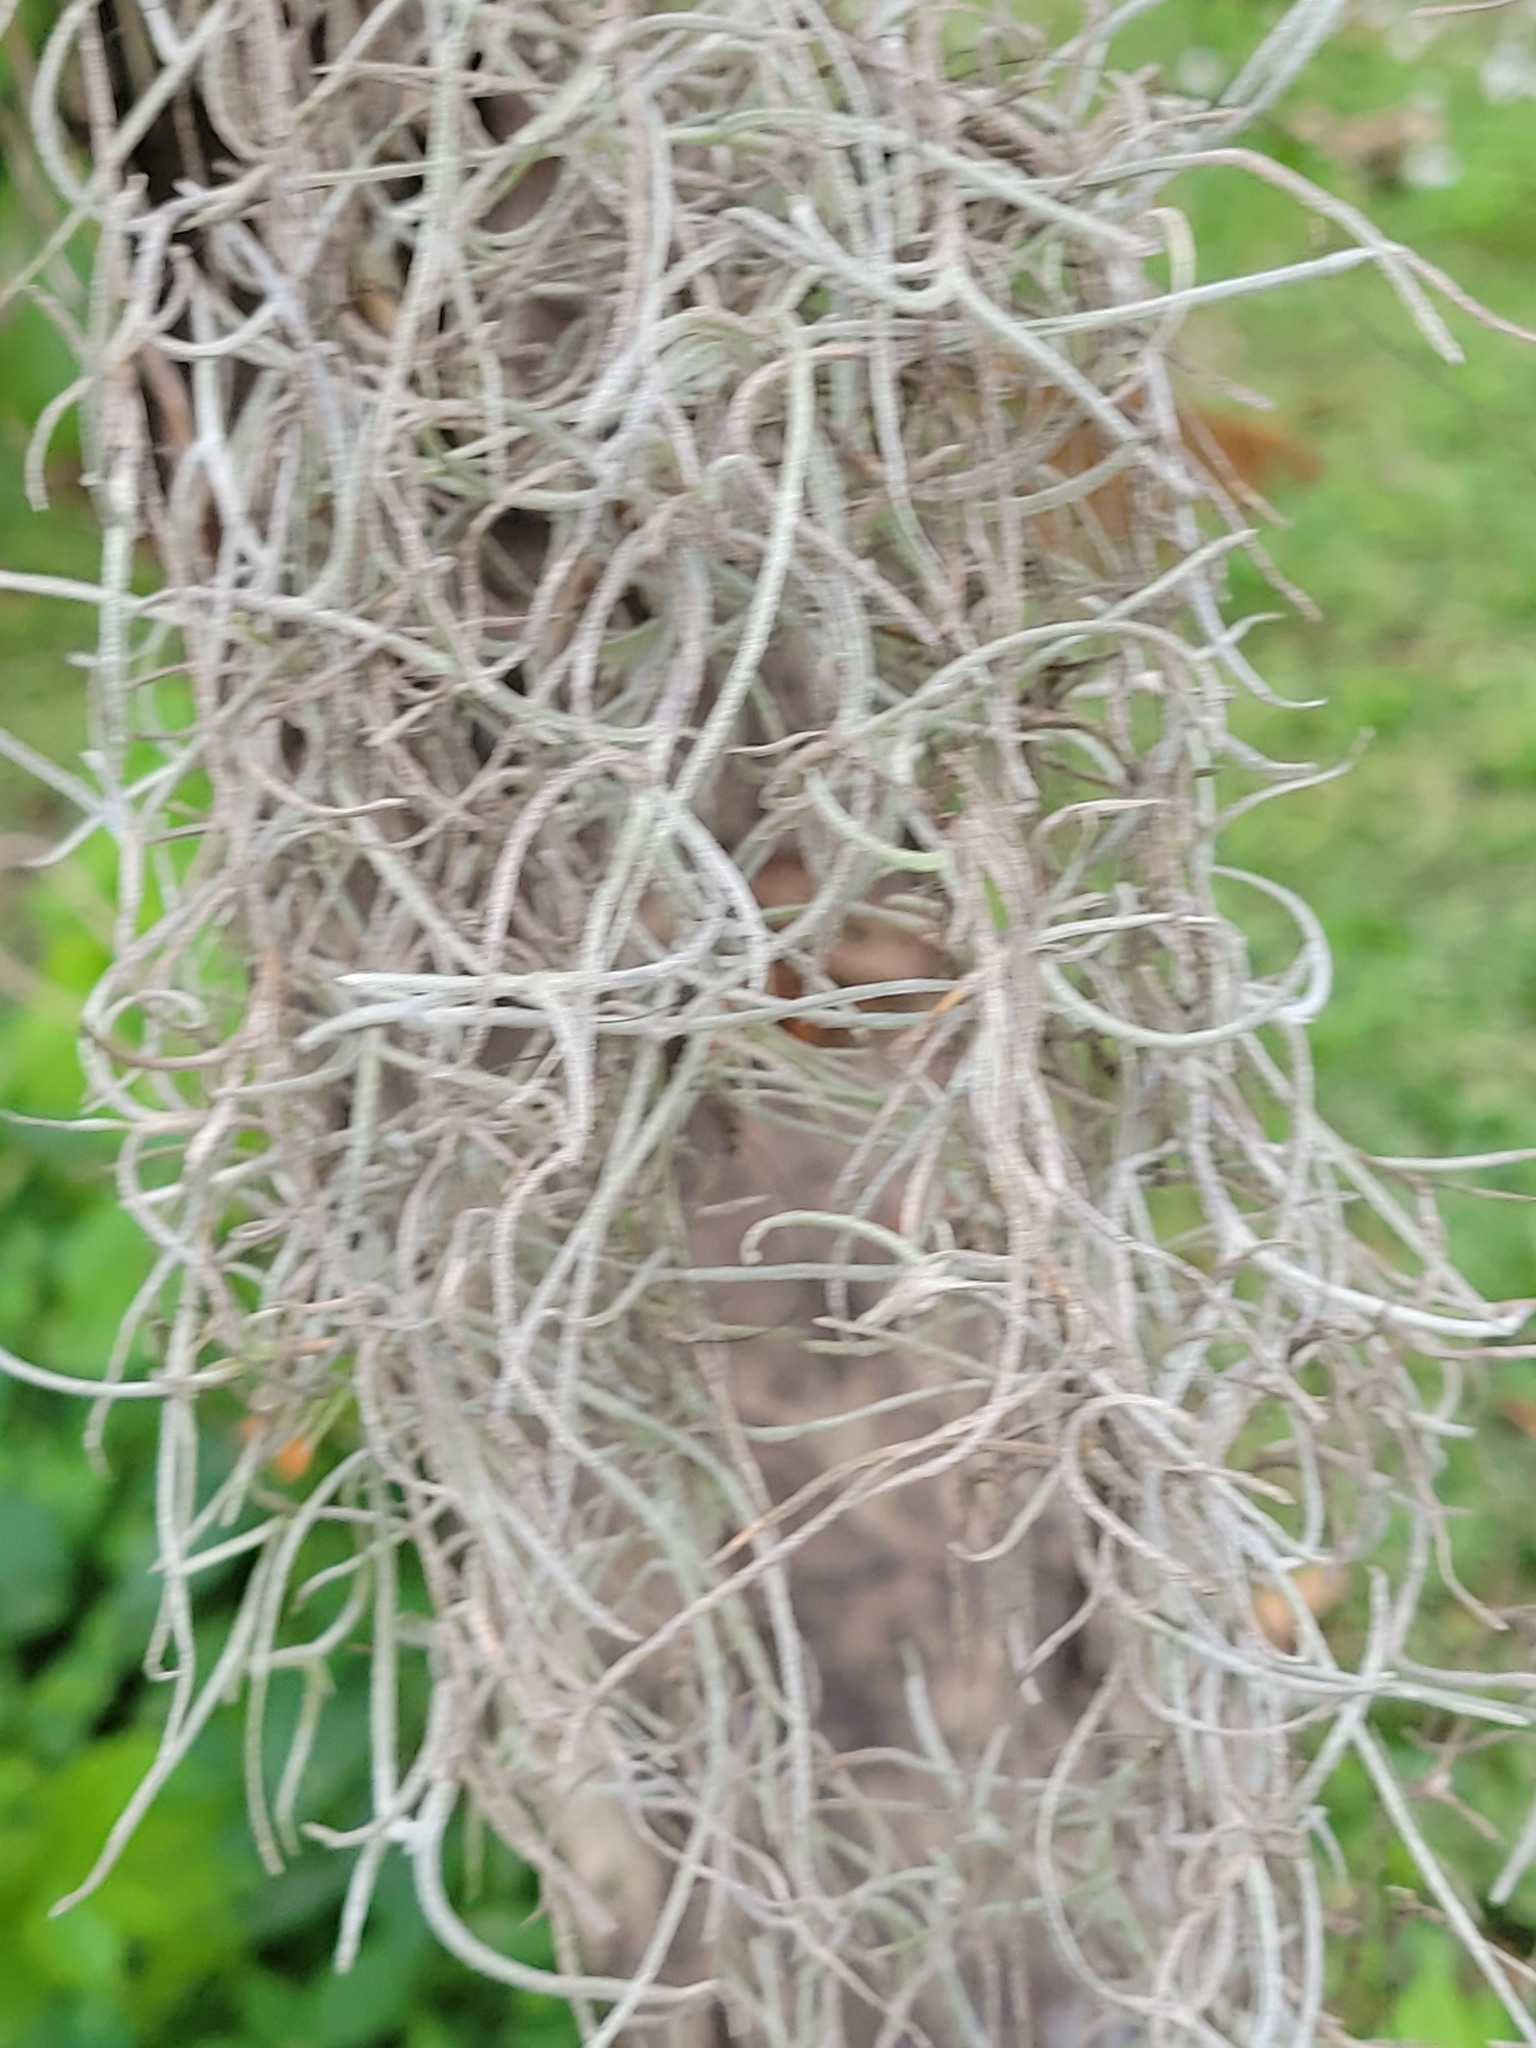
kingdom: Plantae
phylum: Tracheophyta
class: Liliopsida
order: Poales
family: Bromeliaceae
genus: Tillandsia
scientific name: Tillandsia usneoides
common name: Spanish moss
